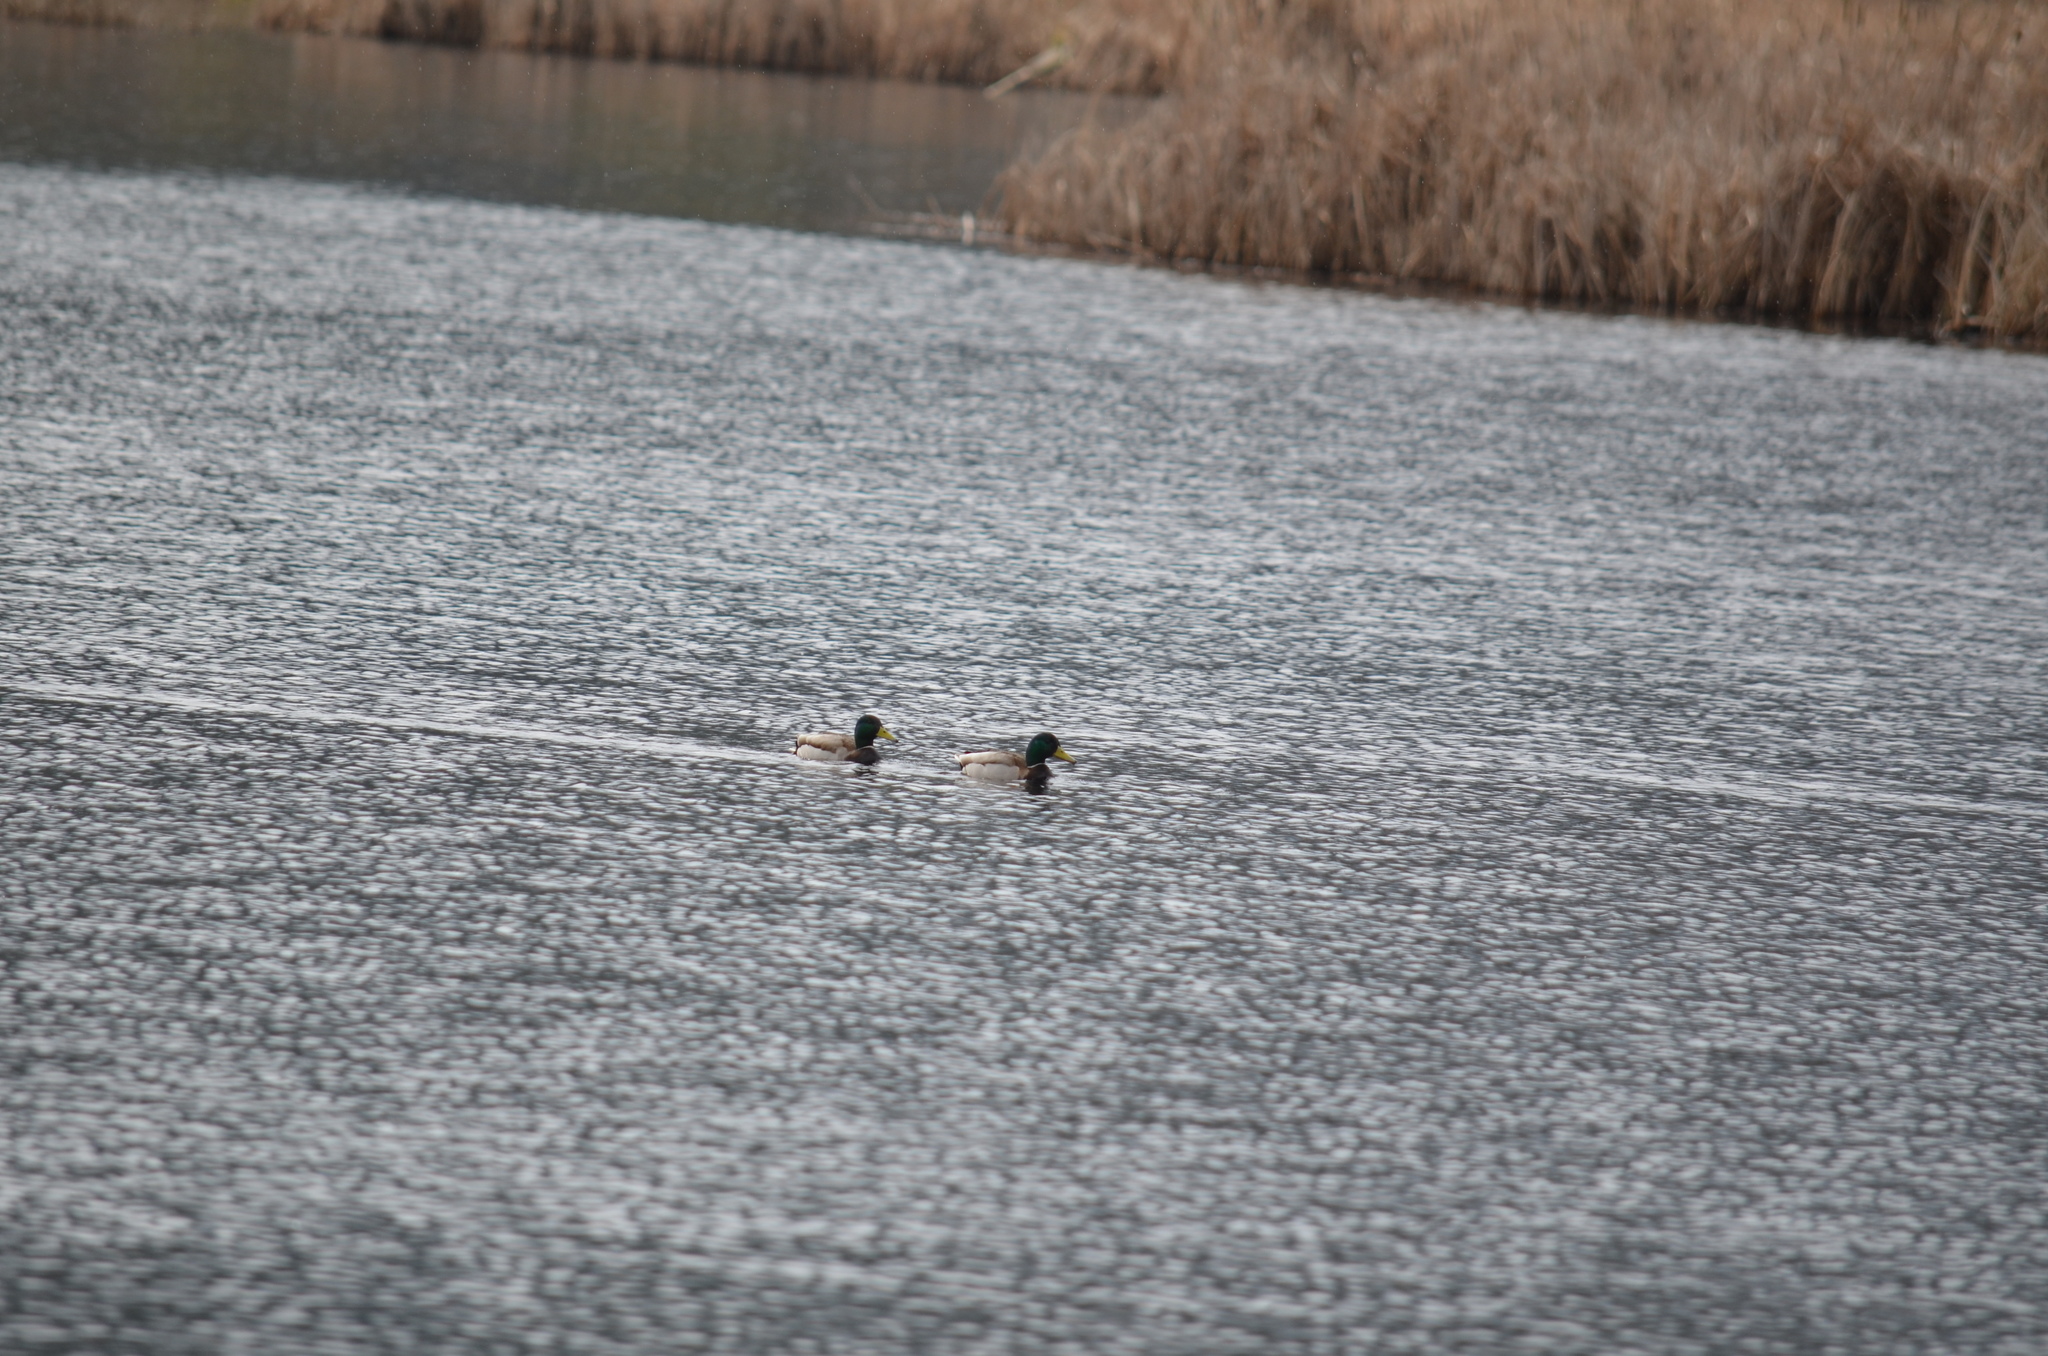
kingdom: Animalia
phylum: Chordata
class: Aves
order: Anseriformes
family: Anatidae
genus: Anas
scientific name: Anas platyrhynchos
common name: Mallard
